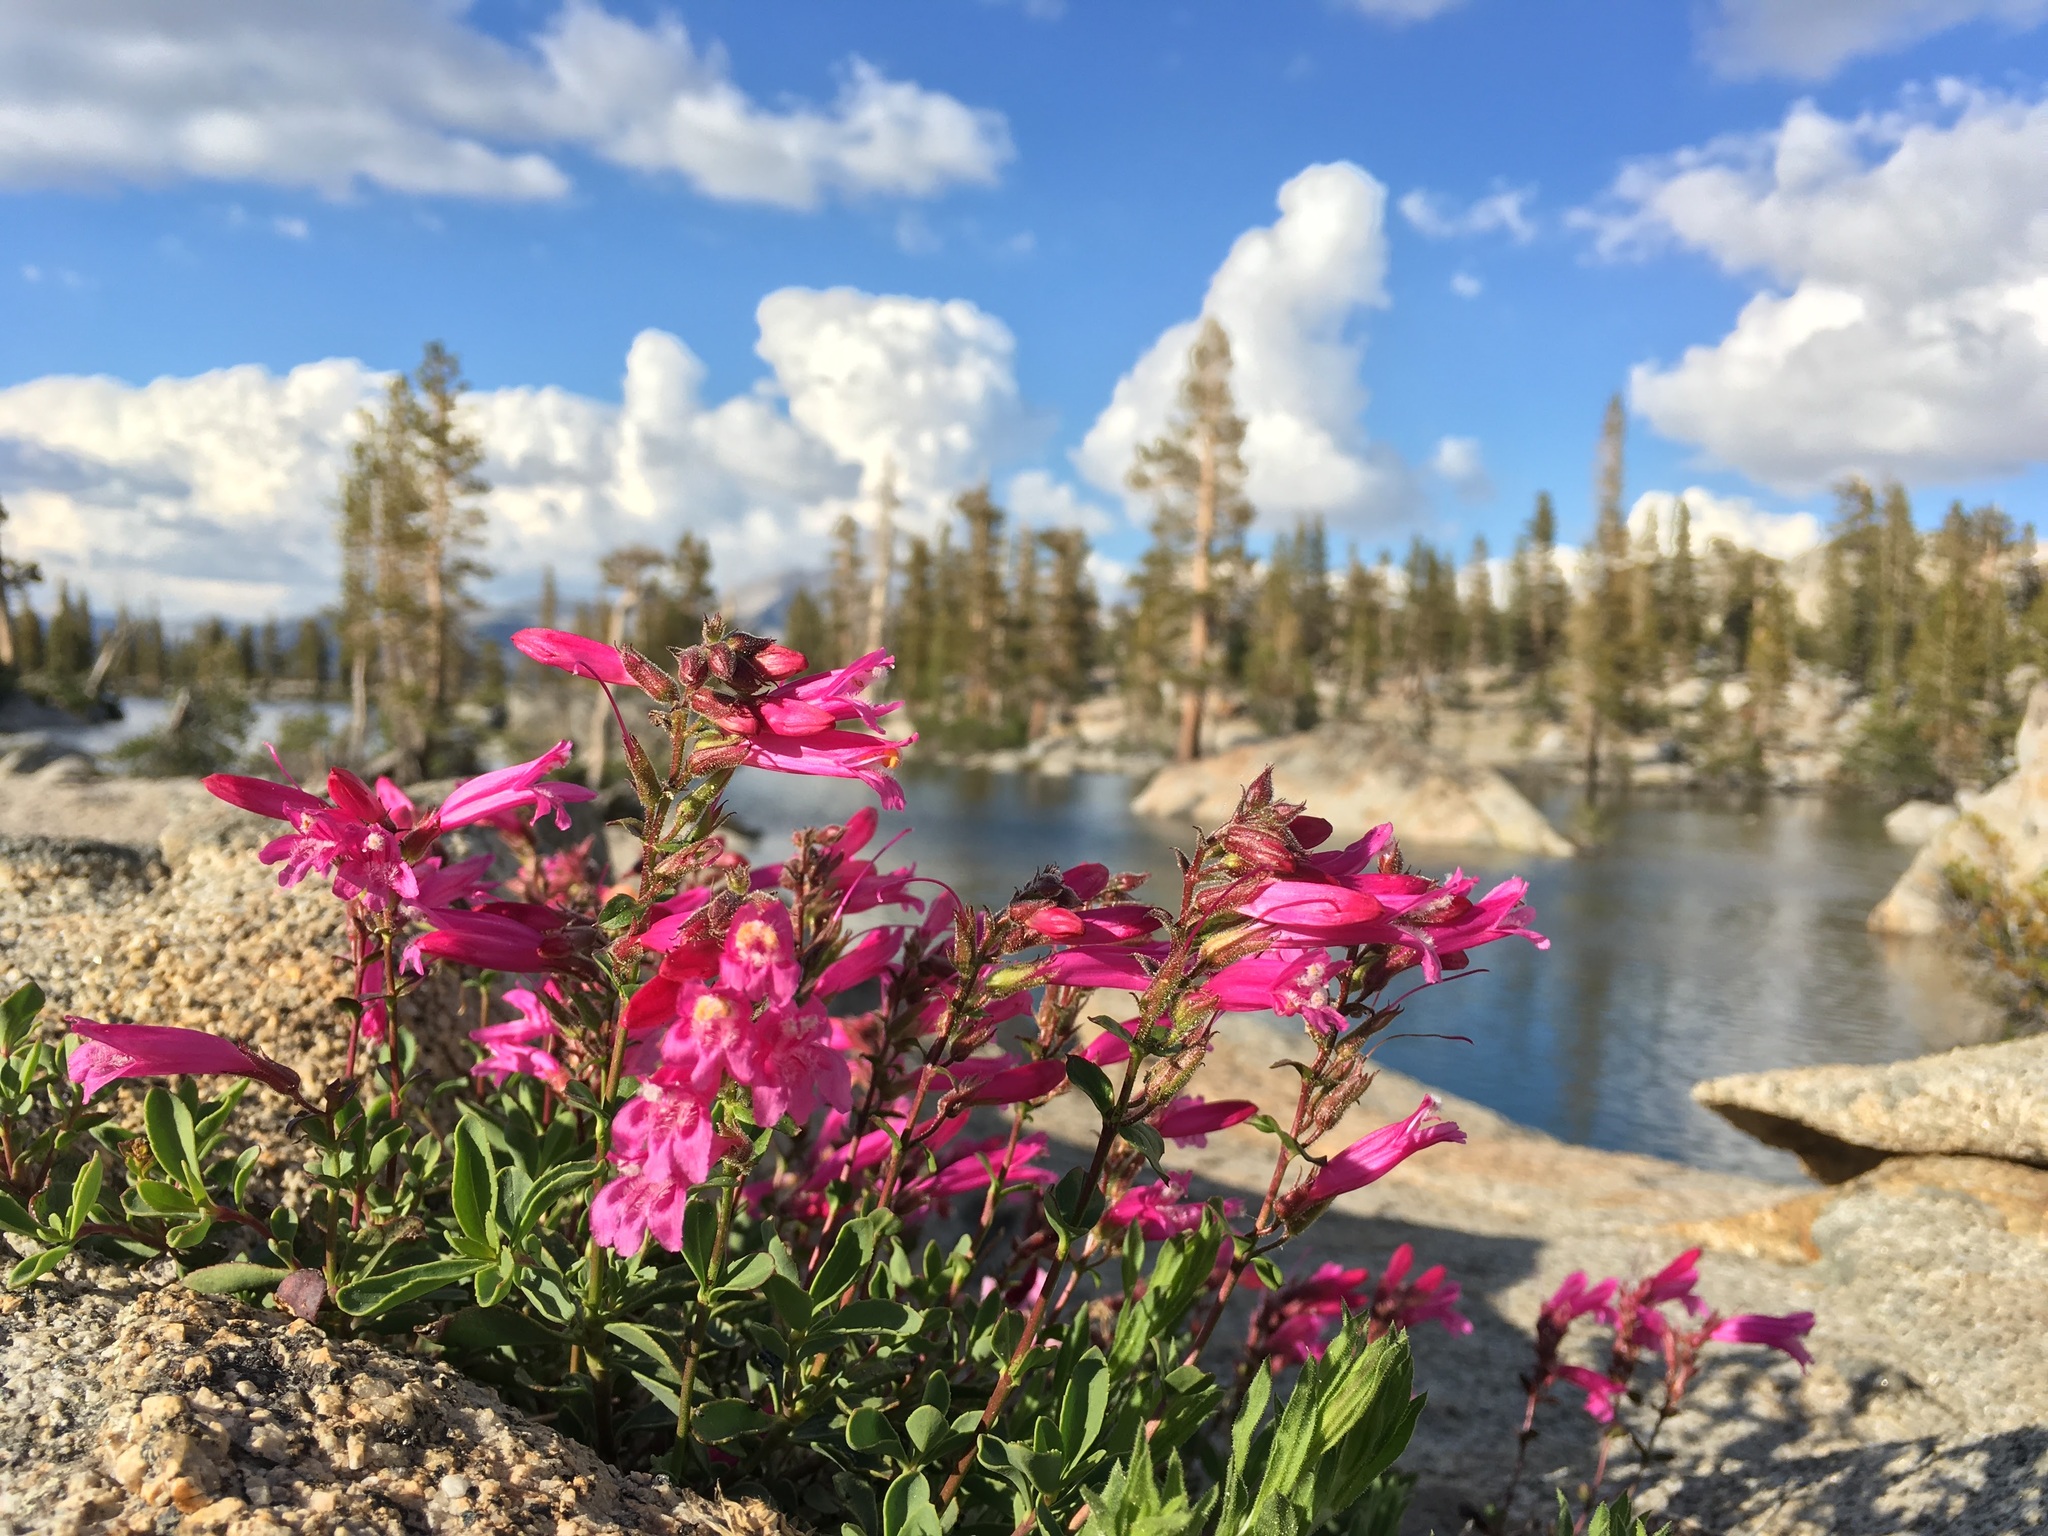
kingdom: Plantae
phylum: Tracheophyta
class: Magnoliopsida
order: Lamiales
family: Plantaginaceae
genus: Penstemon
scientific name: Penstemon newberryi
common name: Mountain-pride
